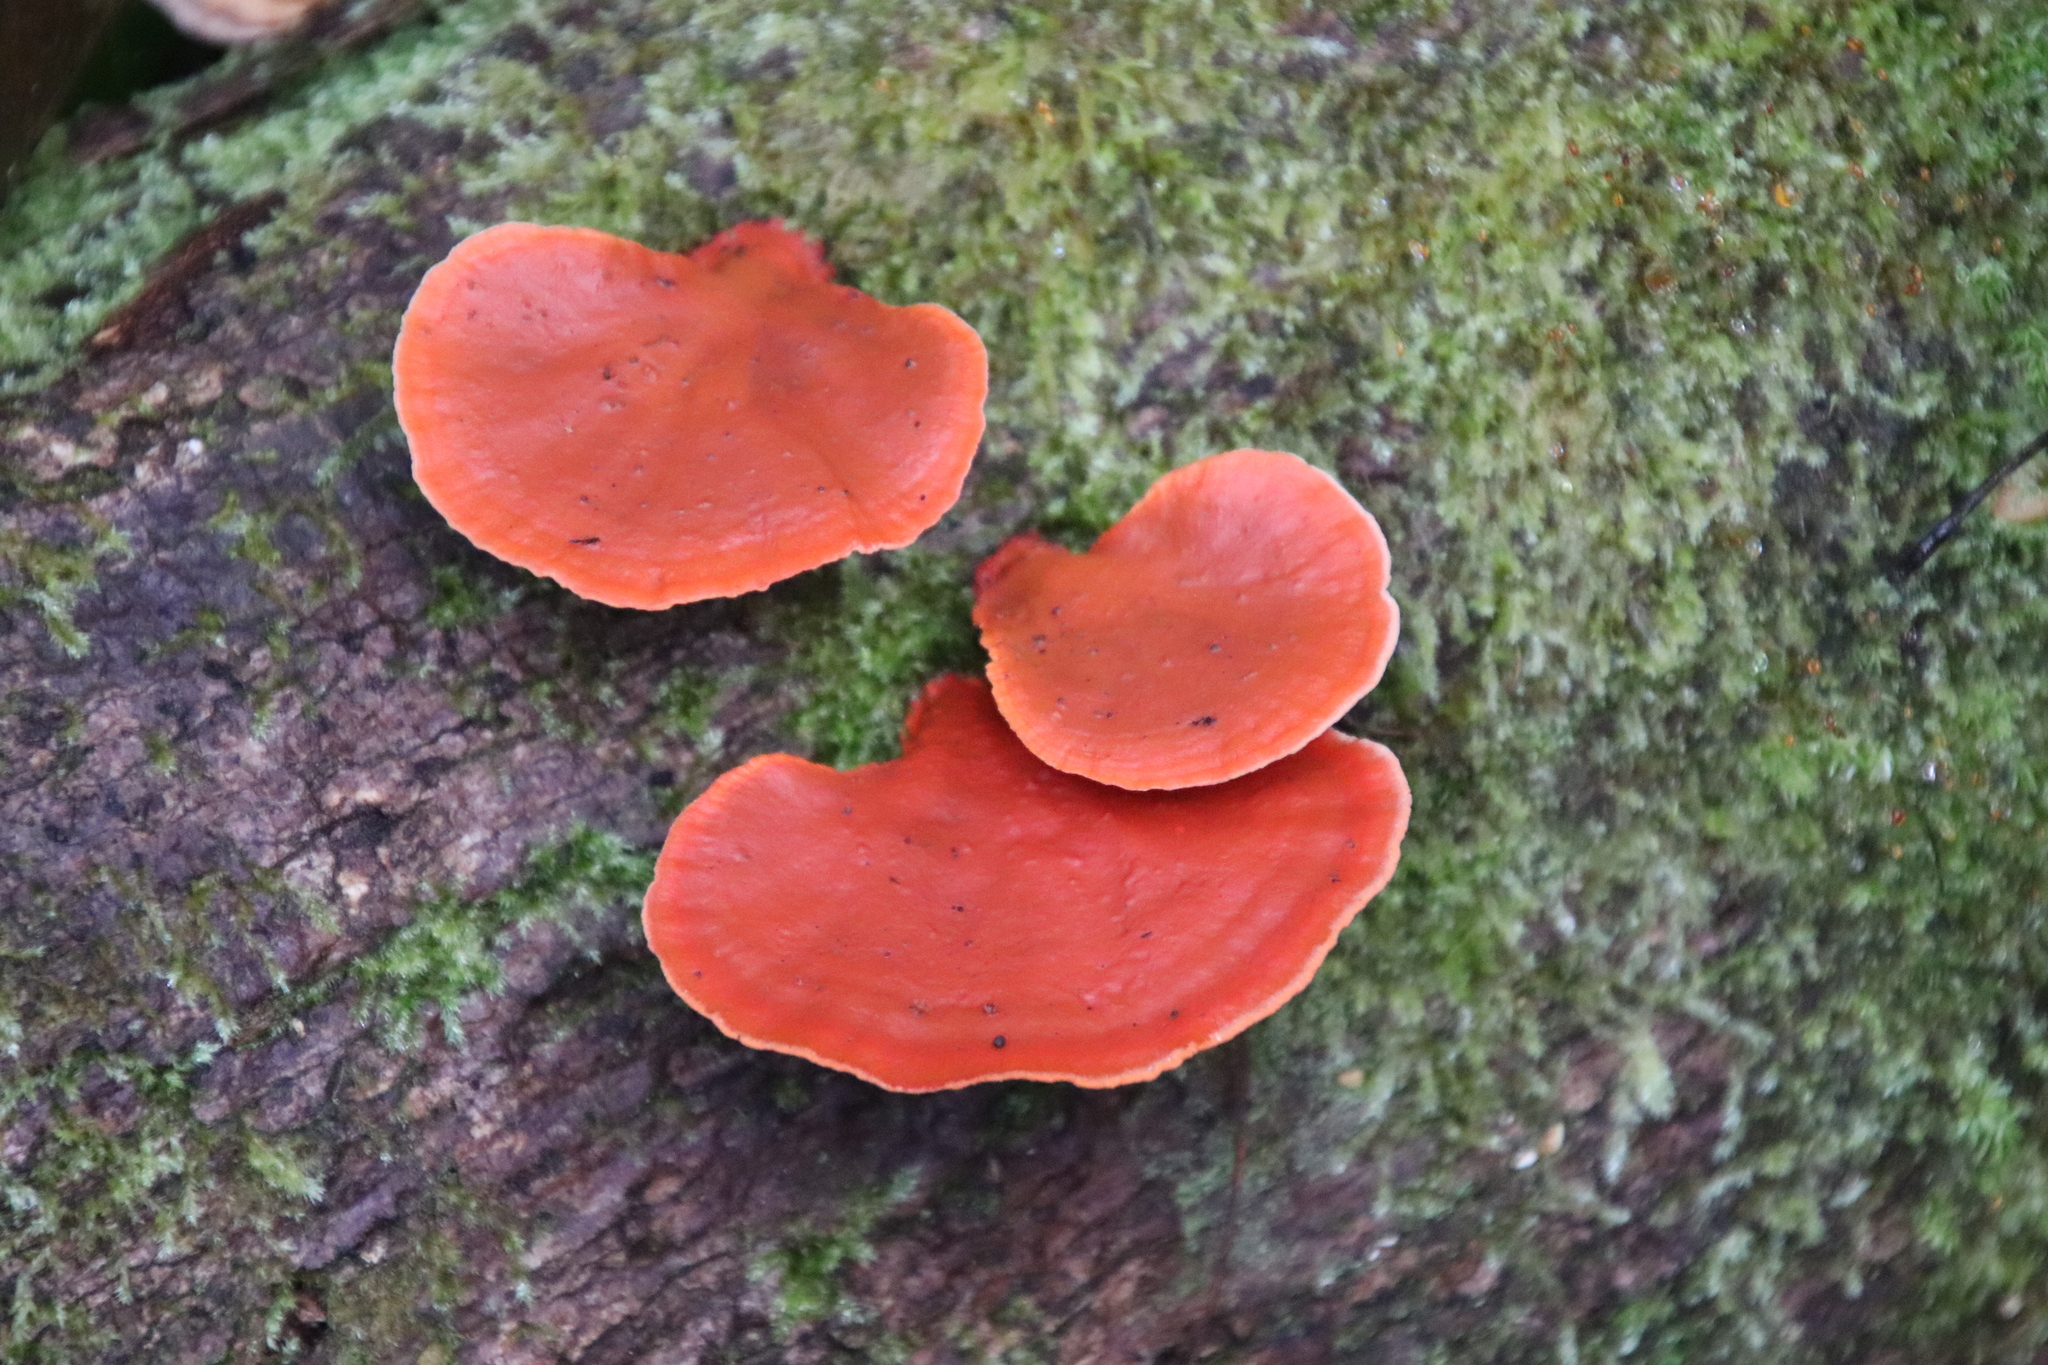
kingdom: Fungi
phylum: Basidiomycota
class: Agaricomycetes
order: Polyporales
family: Polyporaceae
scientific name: Polyporaceae
